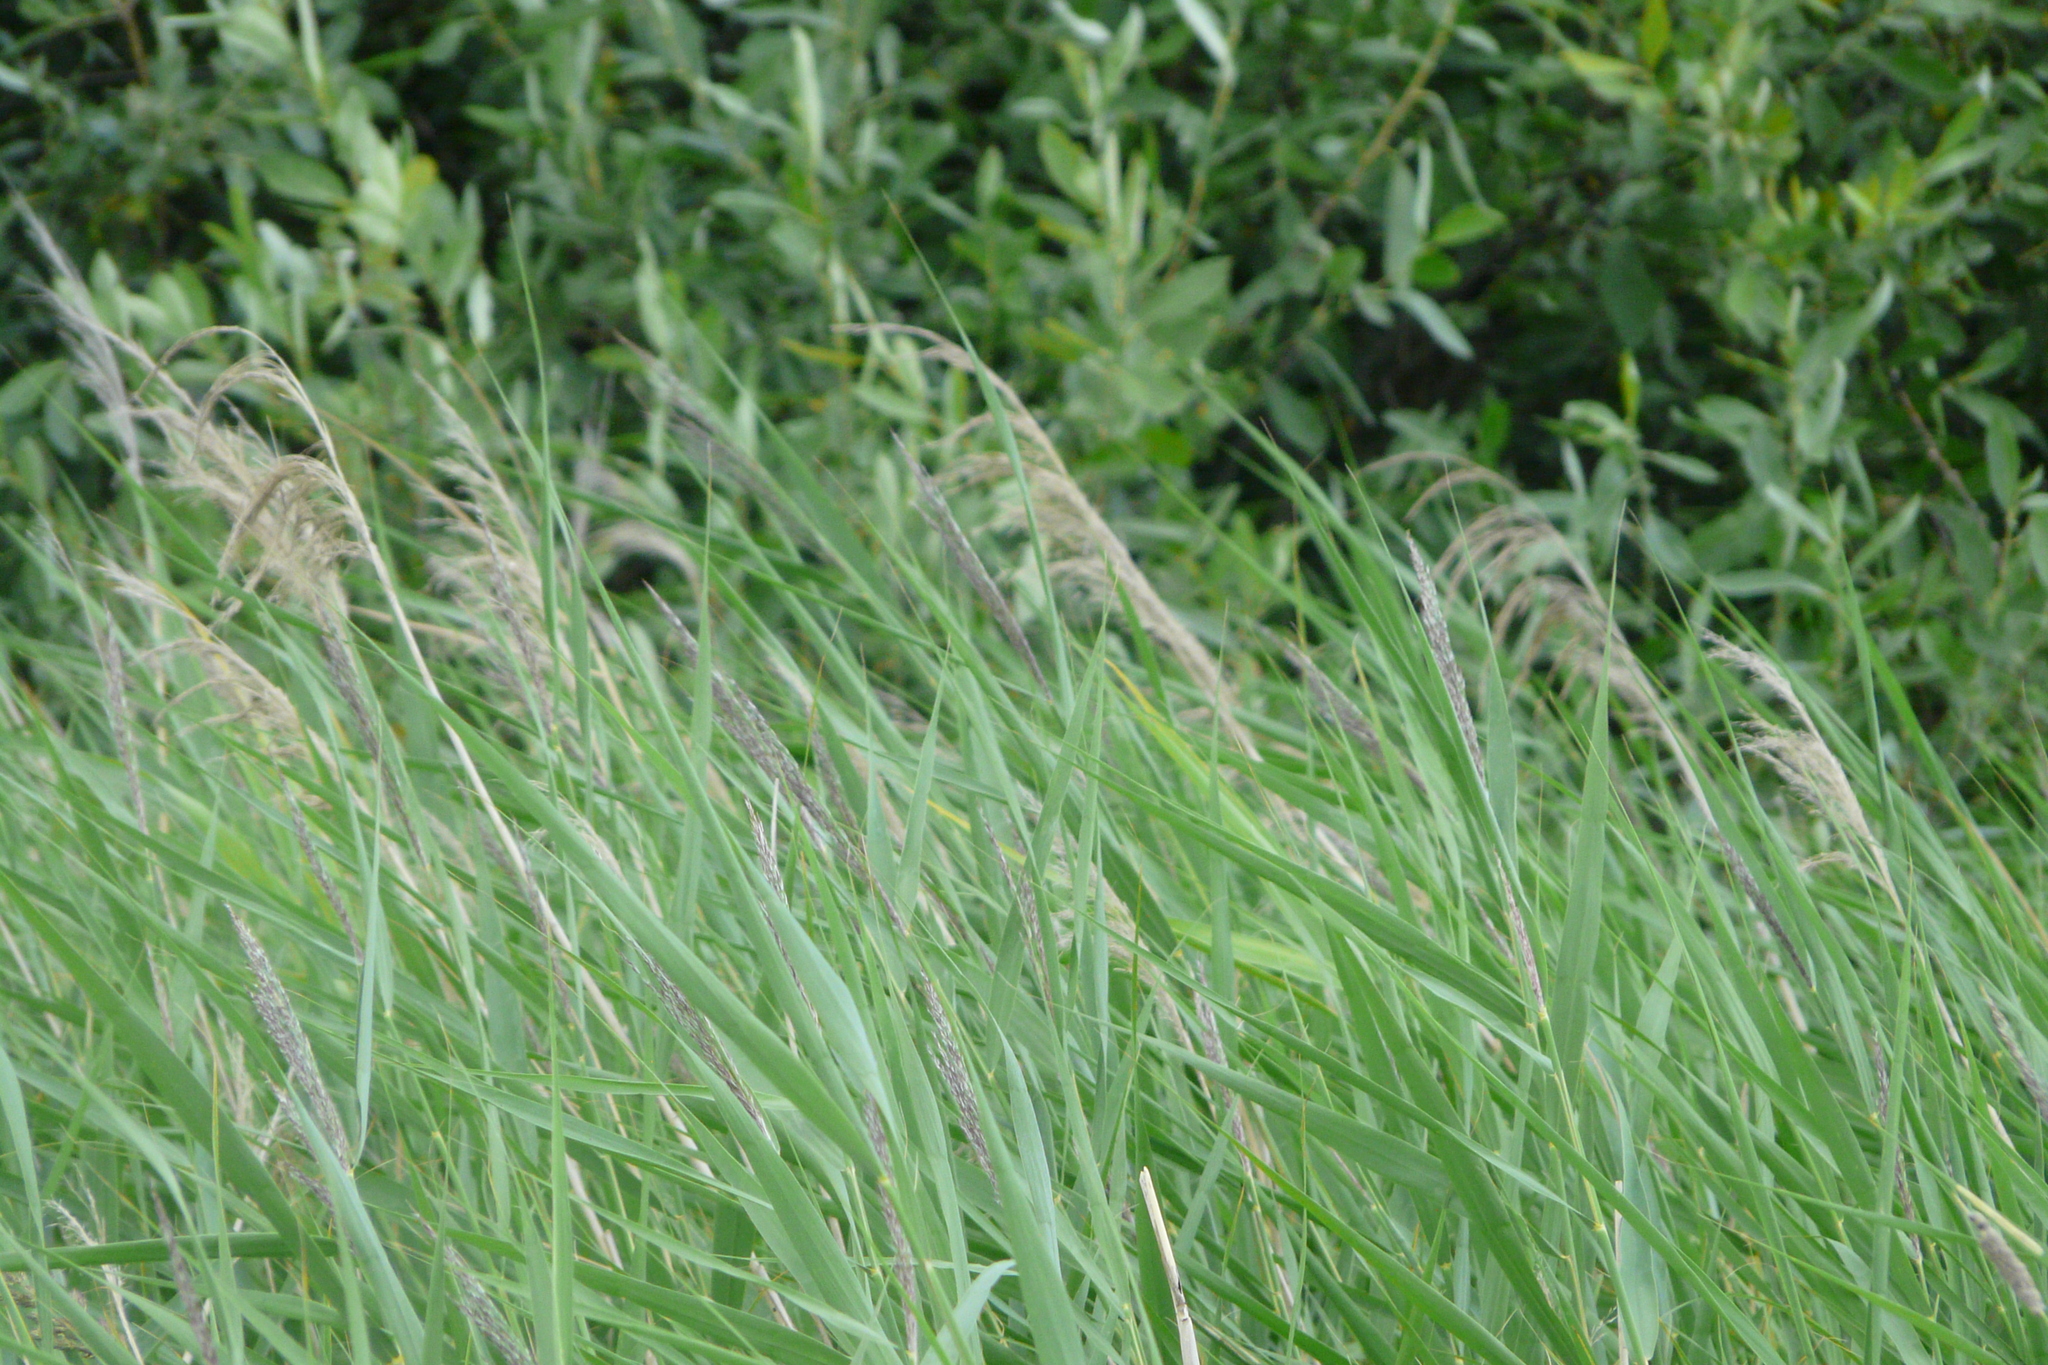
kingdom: Plantae
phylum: Tracheophyta
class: Liliopsida
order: Poales
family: Poaceae
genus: Phragmites
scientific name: Phragmites australis
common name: Common reed
